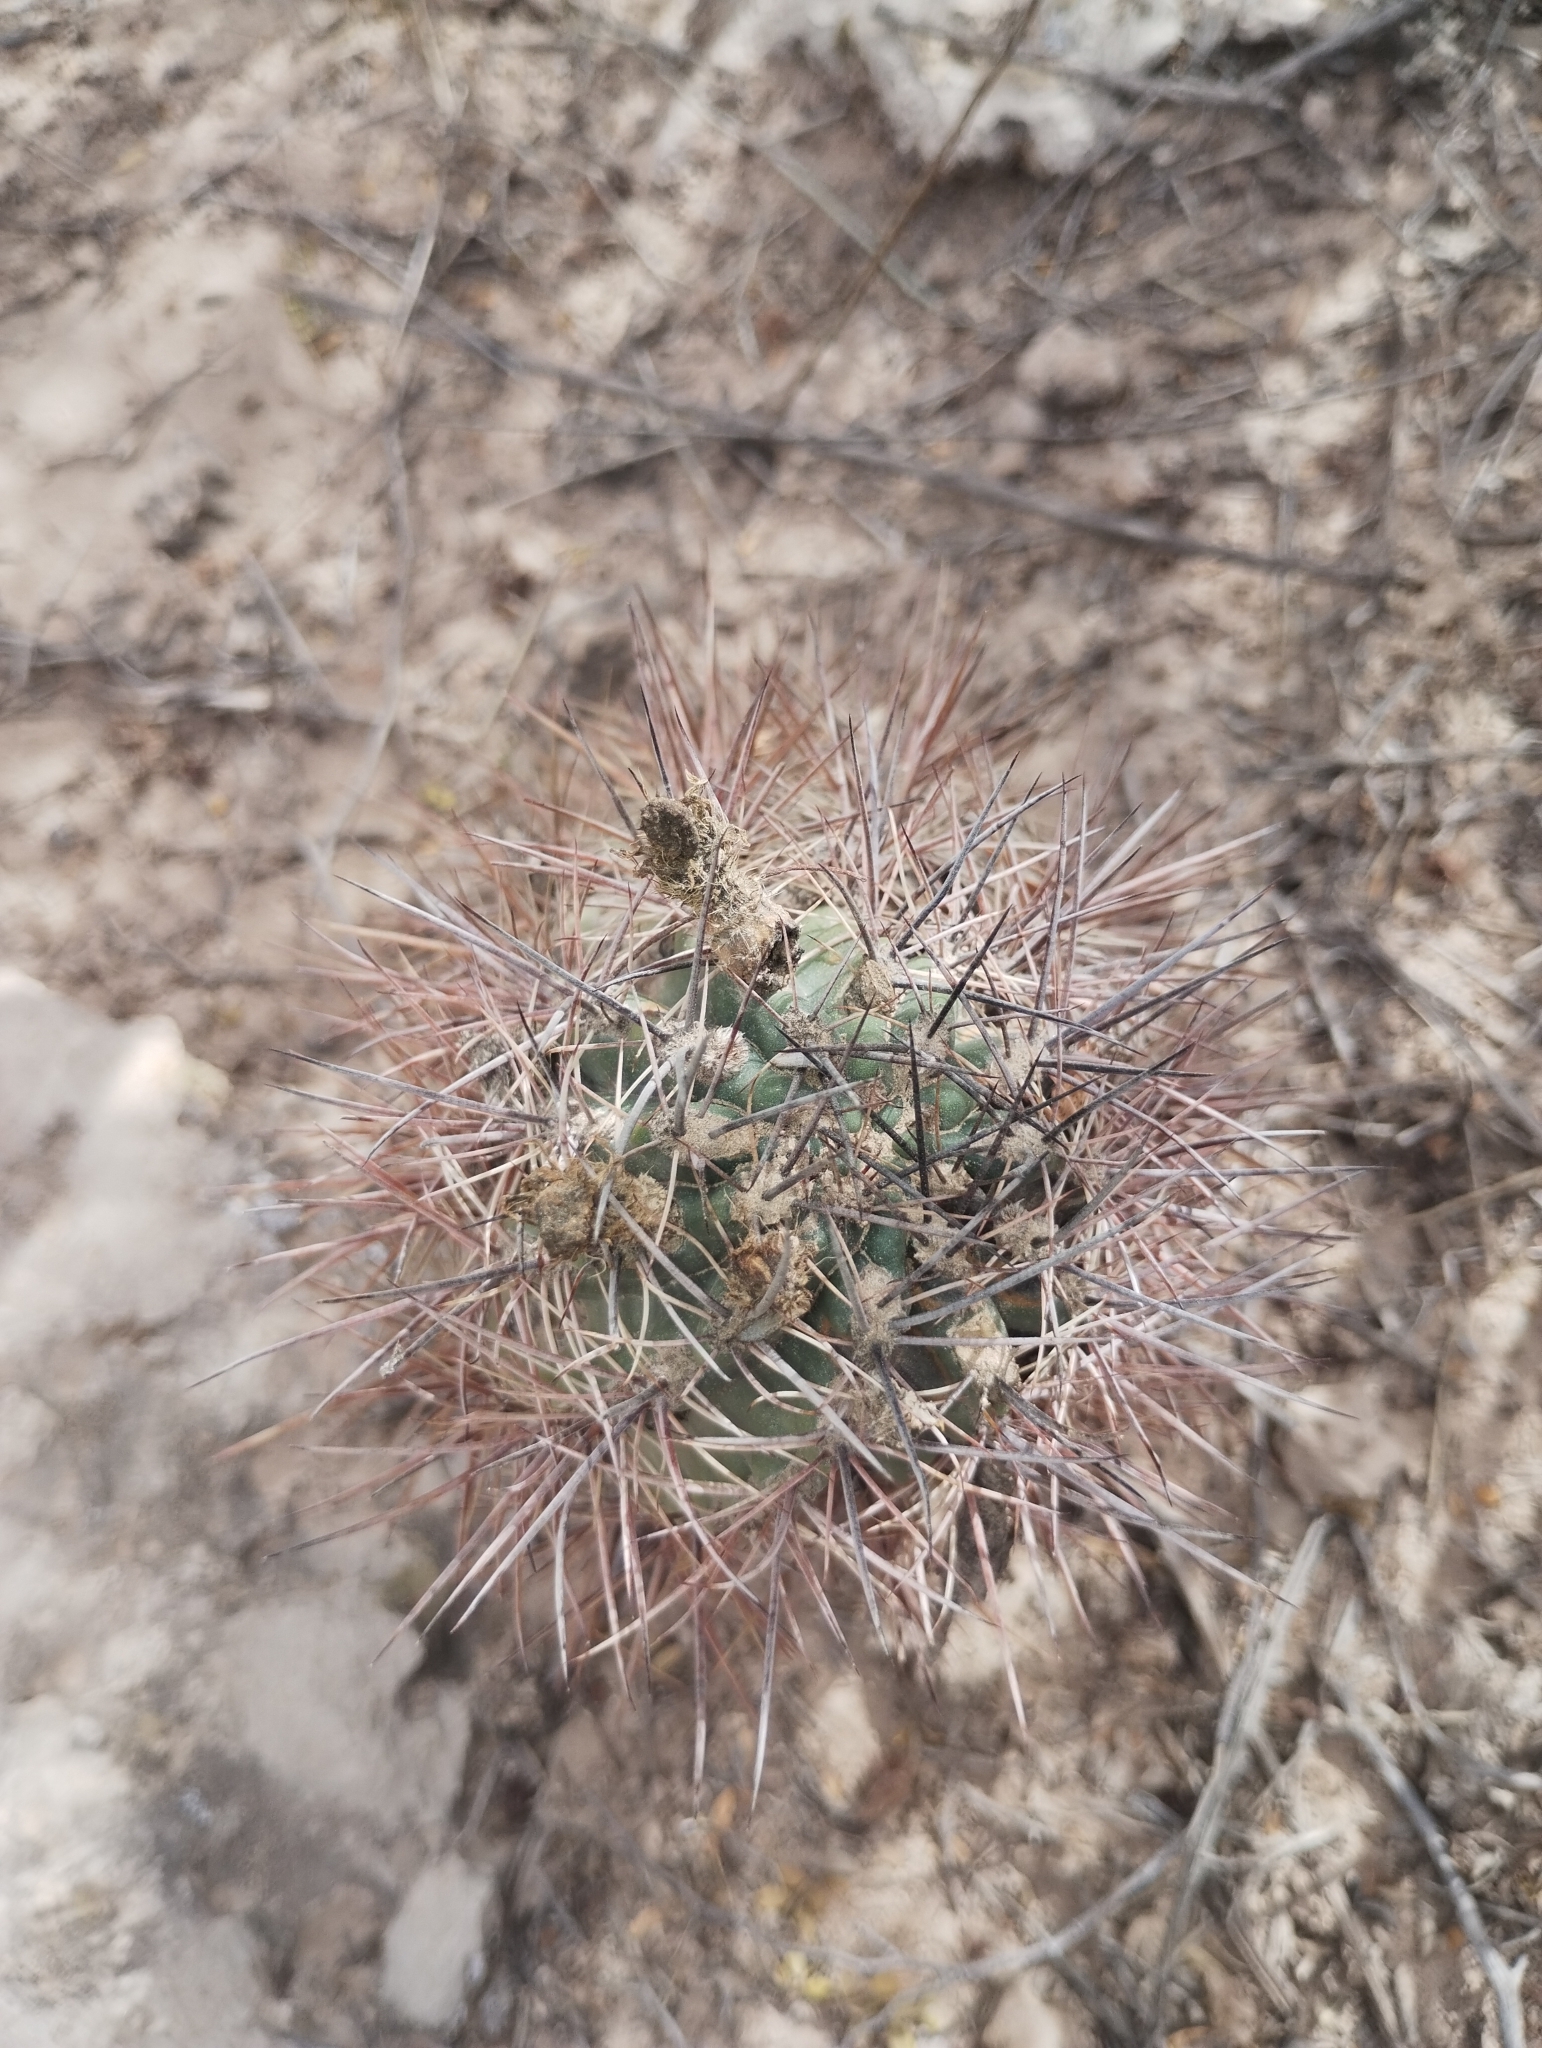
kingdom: Plantae
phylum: Tracheophyta
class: Magnoliopsida
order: Caryophyllales
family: Cactaceae
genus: Eriosyce
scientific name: Eriosyce strausiana
